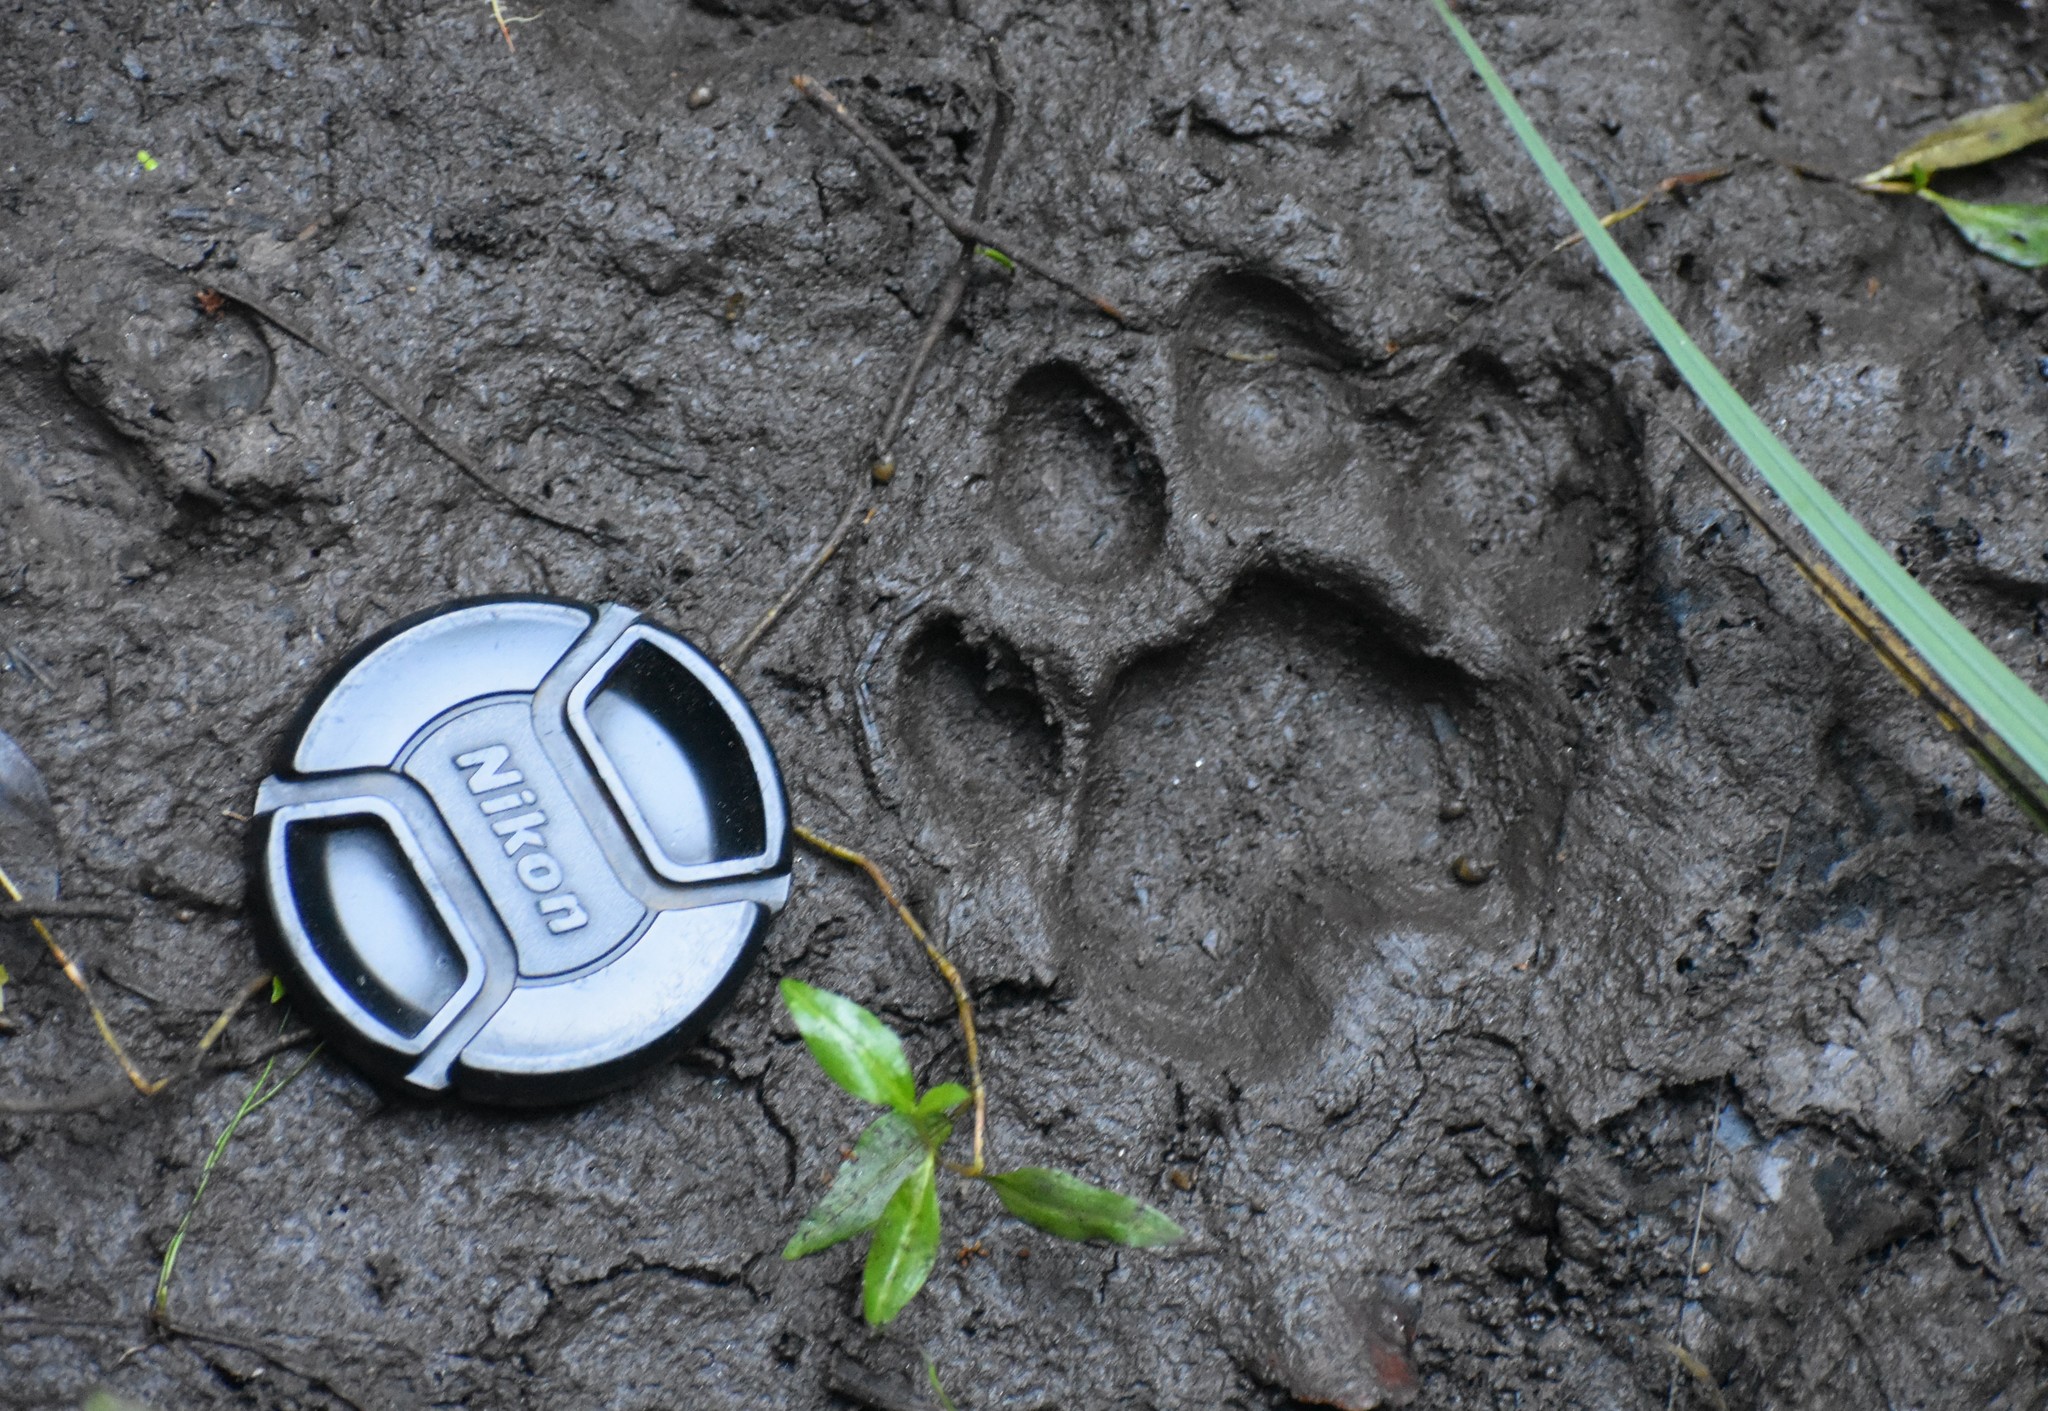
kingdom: Animalia
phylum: Chordata
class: Mammalia
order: Carnivora
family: Felidae
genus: Panthera
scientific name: Panthera pardus
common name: Leopard
